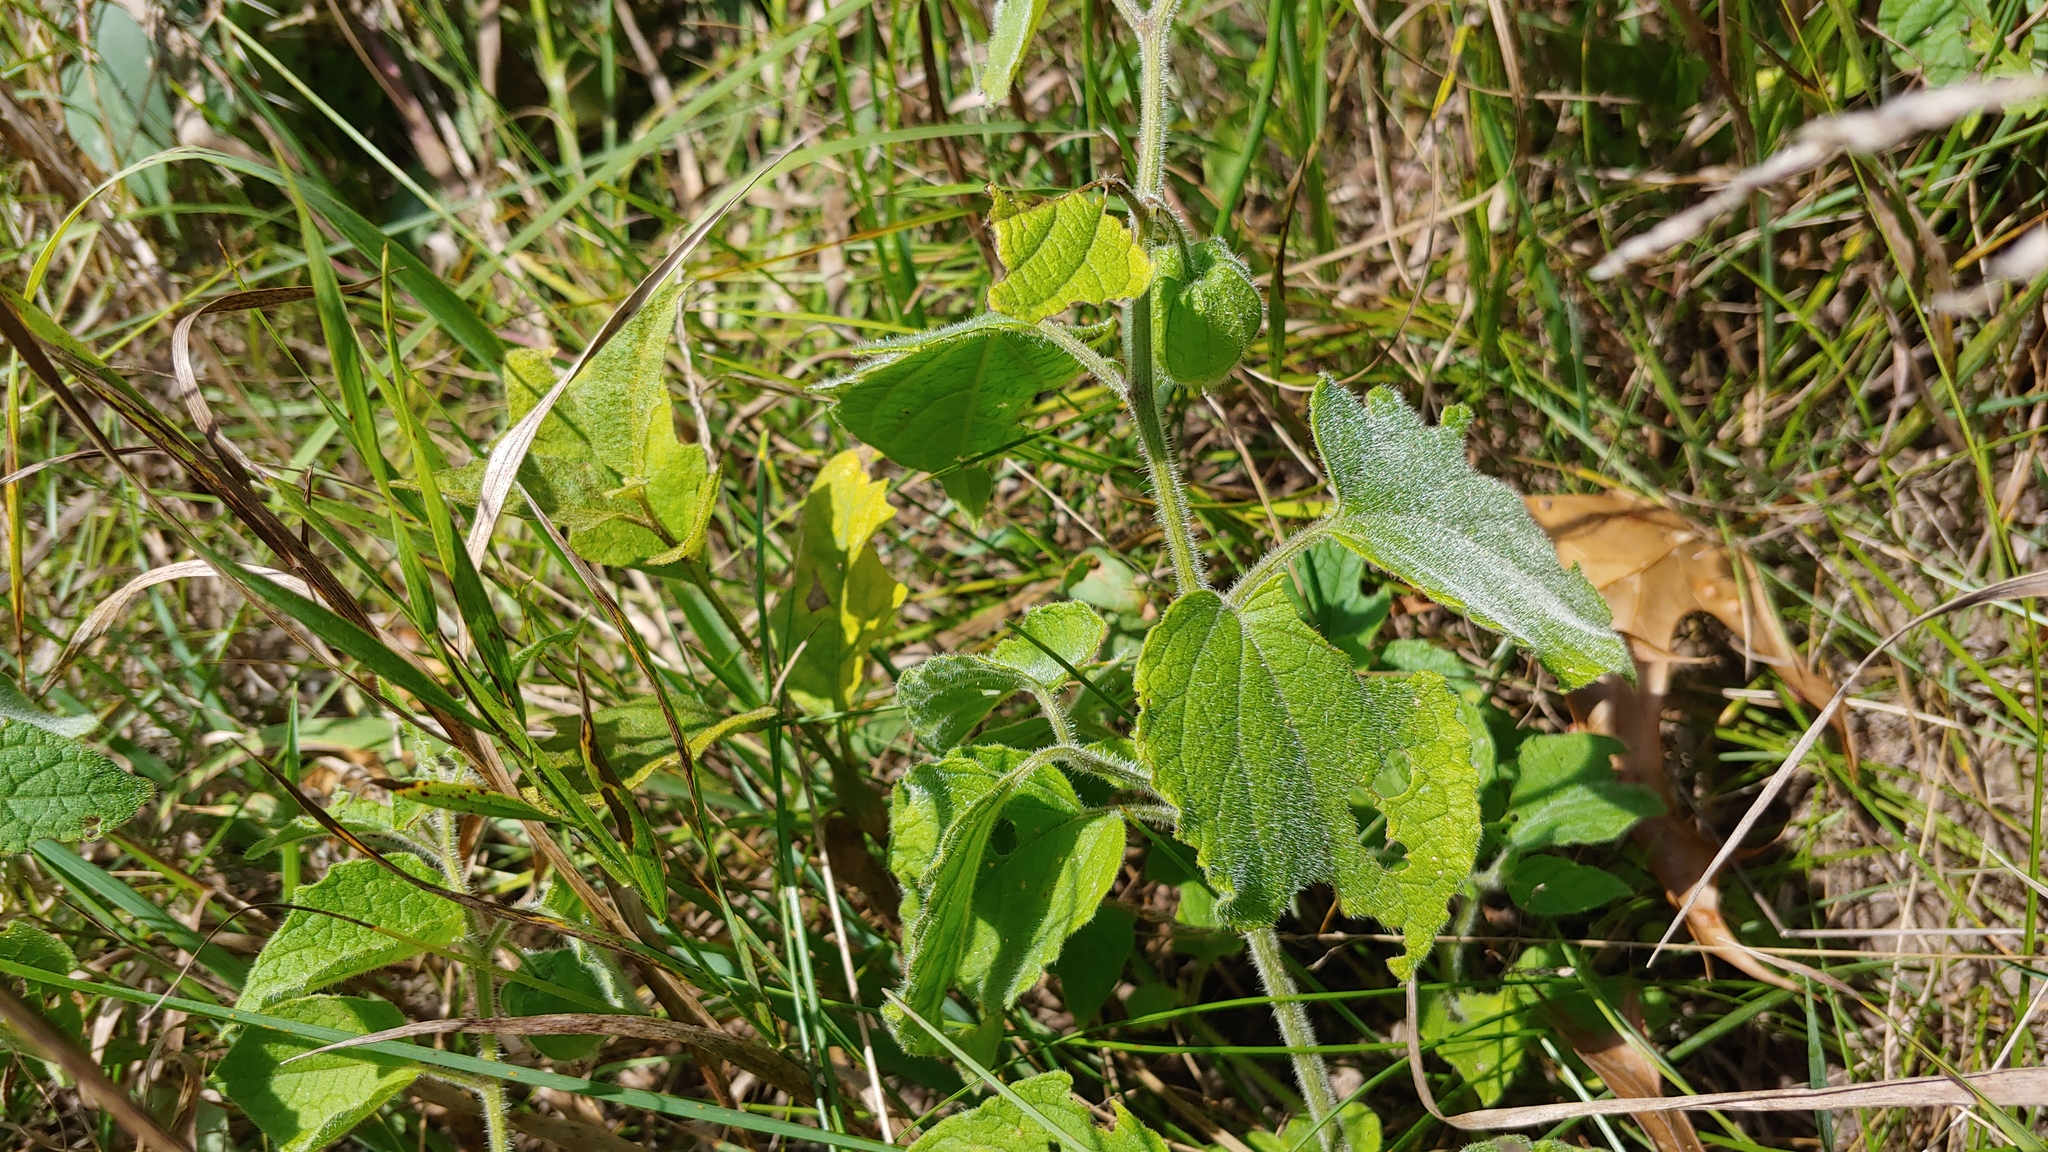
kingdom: Plantae
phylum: Tracheophyta
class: Magnoliopsida
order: Solanales
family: Solanaceae
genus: Physalis
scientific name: Physalis heterophylla
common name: Clammy ground-cherry
